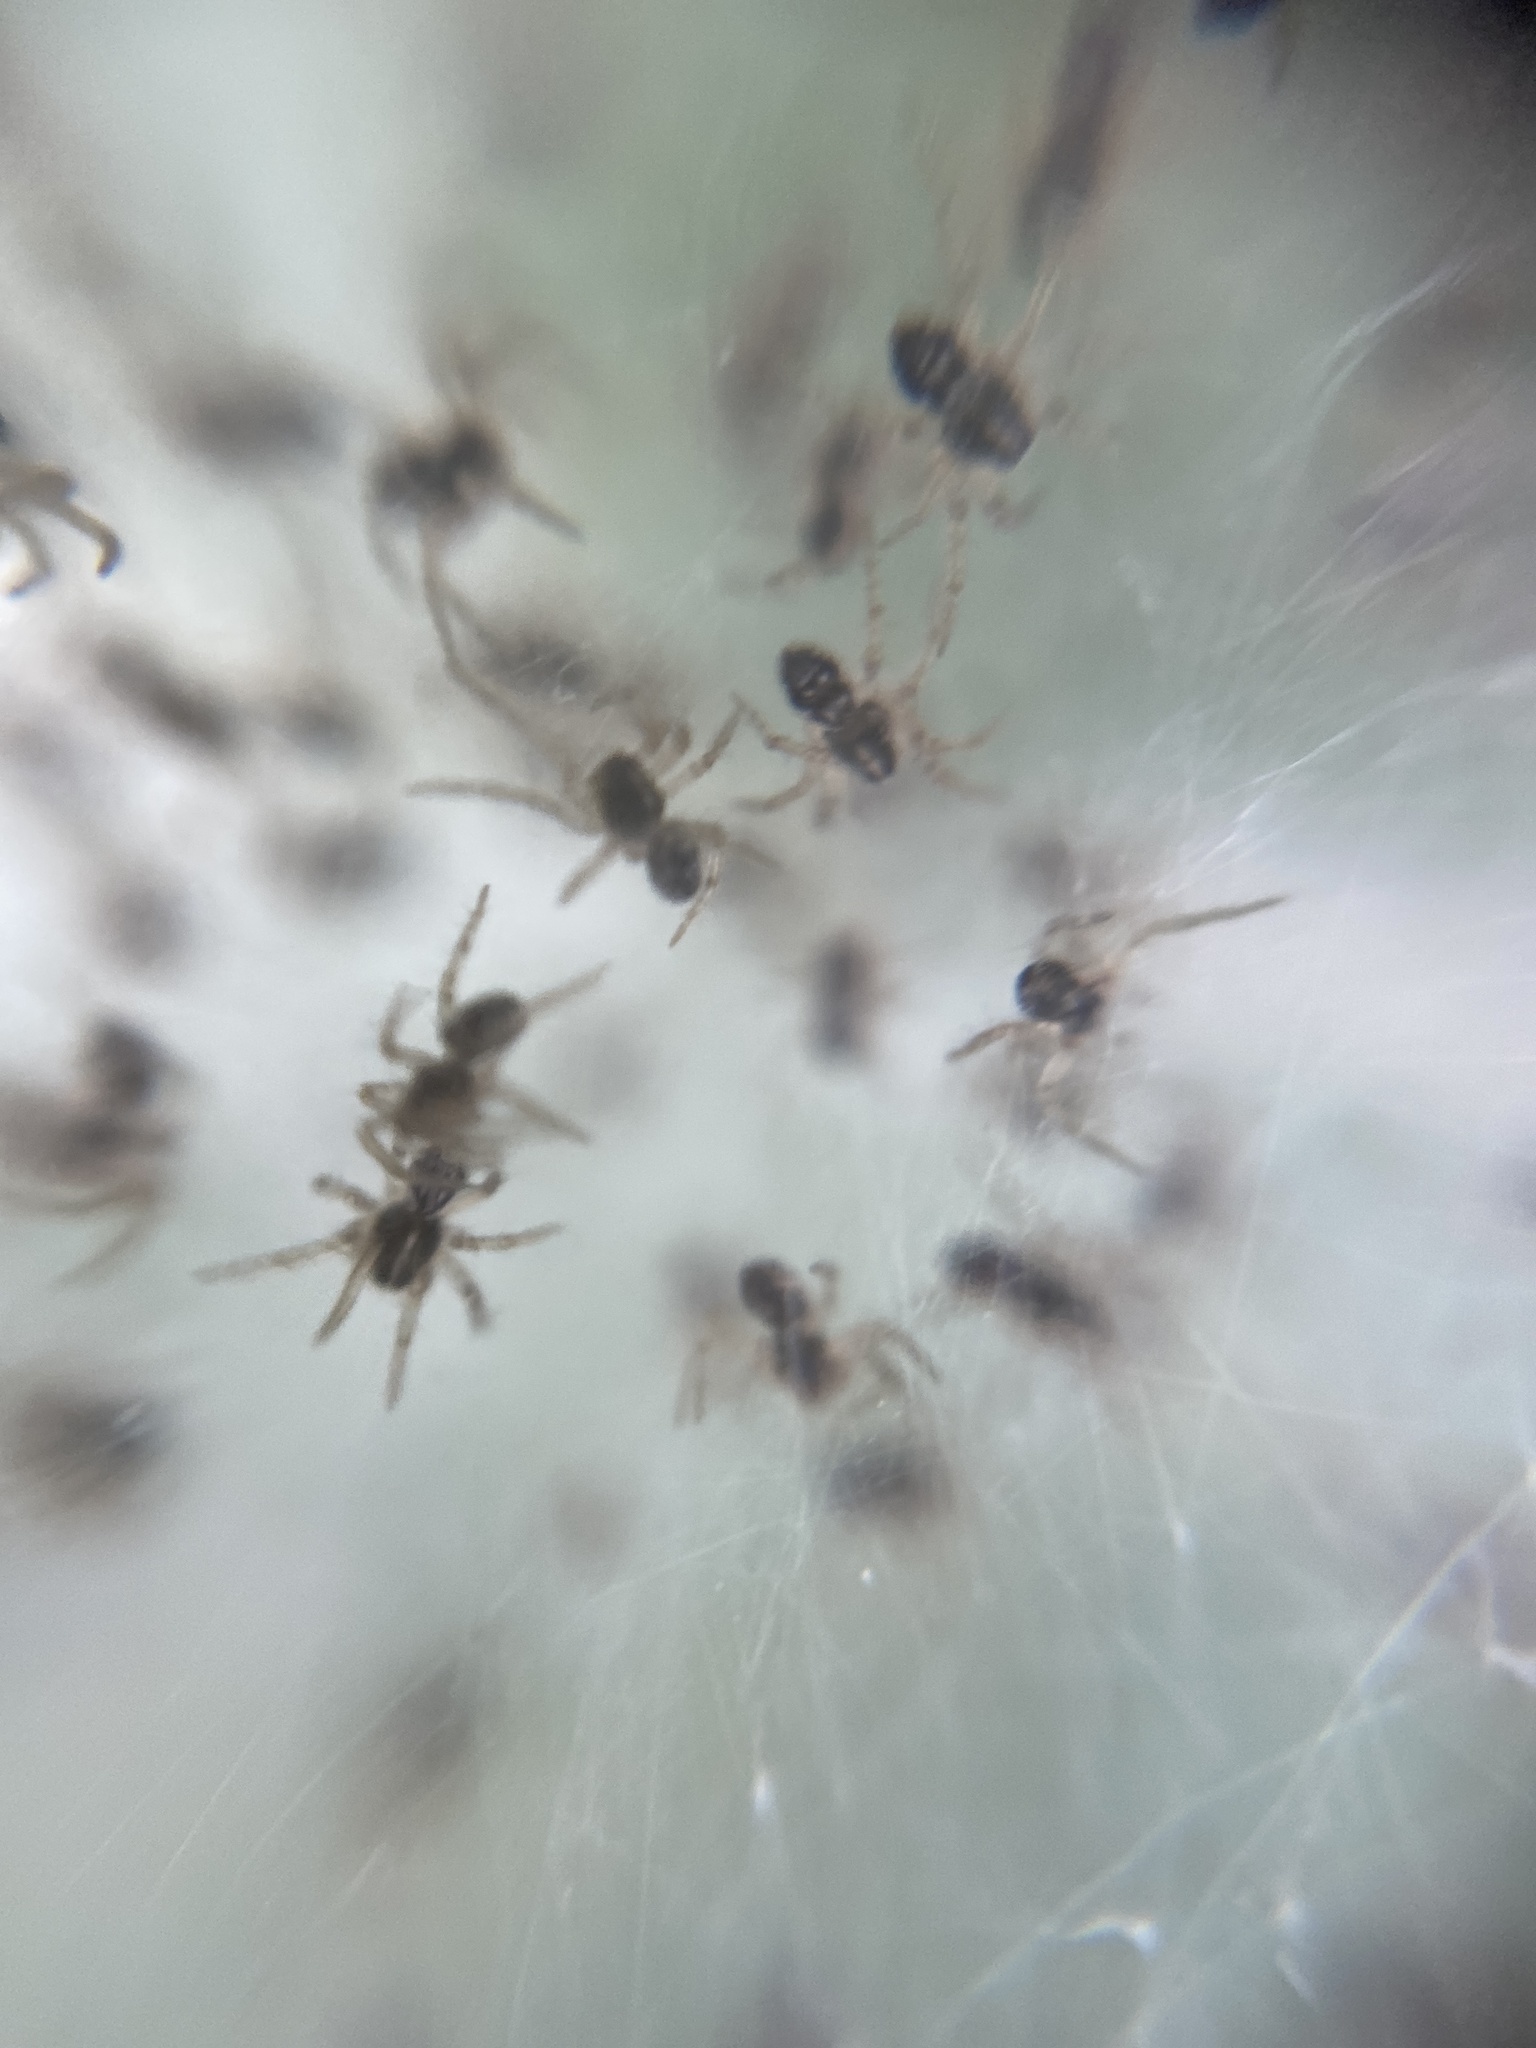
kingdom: Animalia
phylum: Arthropoda
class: Arachnida
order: Araneae
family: Pisauridae
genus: Pisaura
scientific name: Pisaura mirabilis
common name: Tent spider
